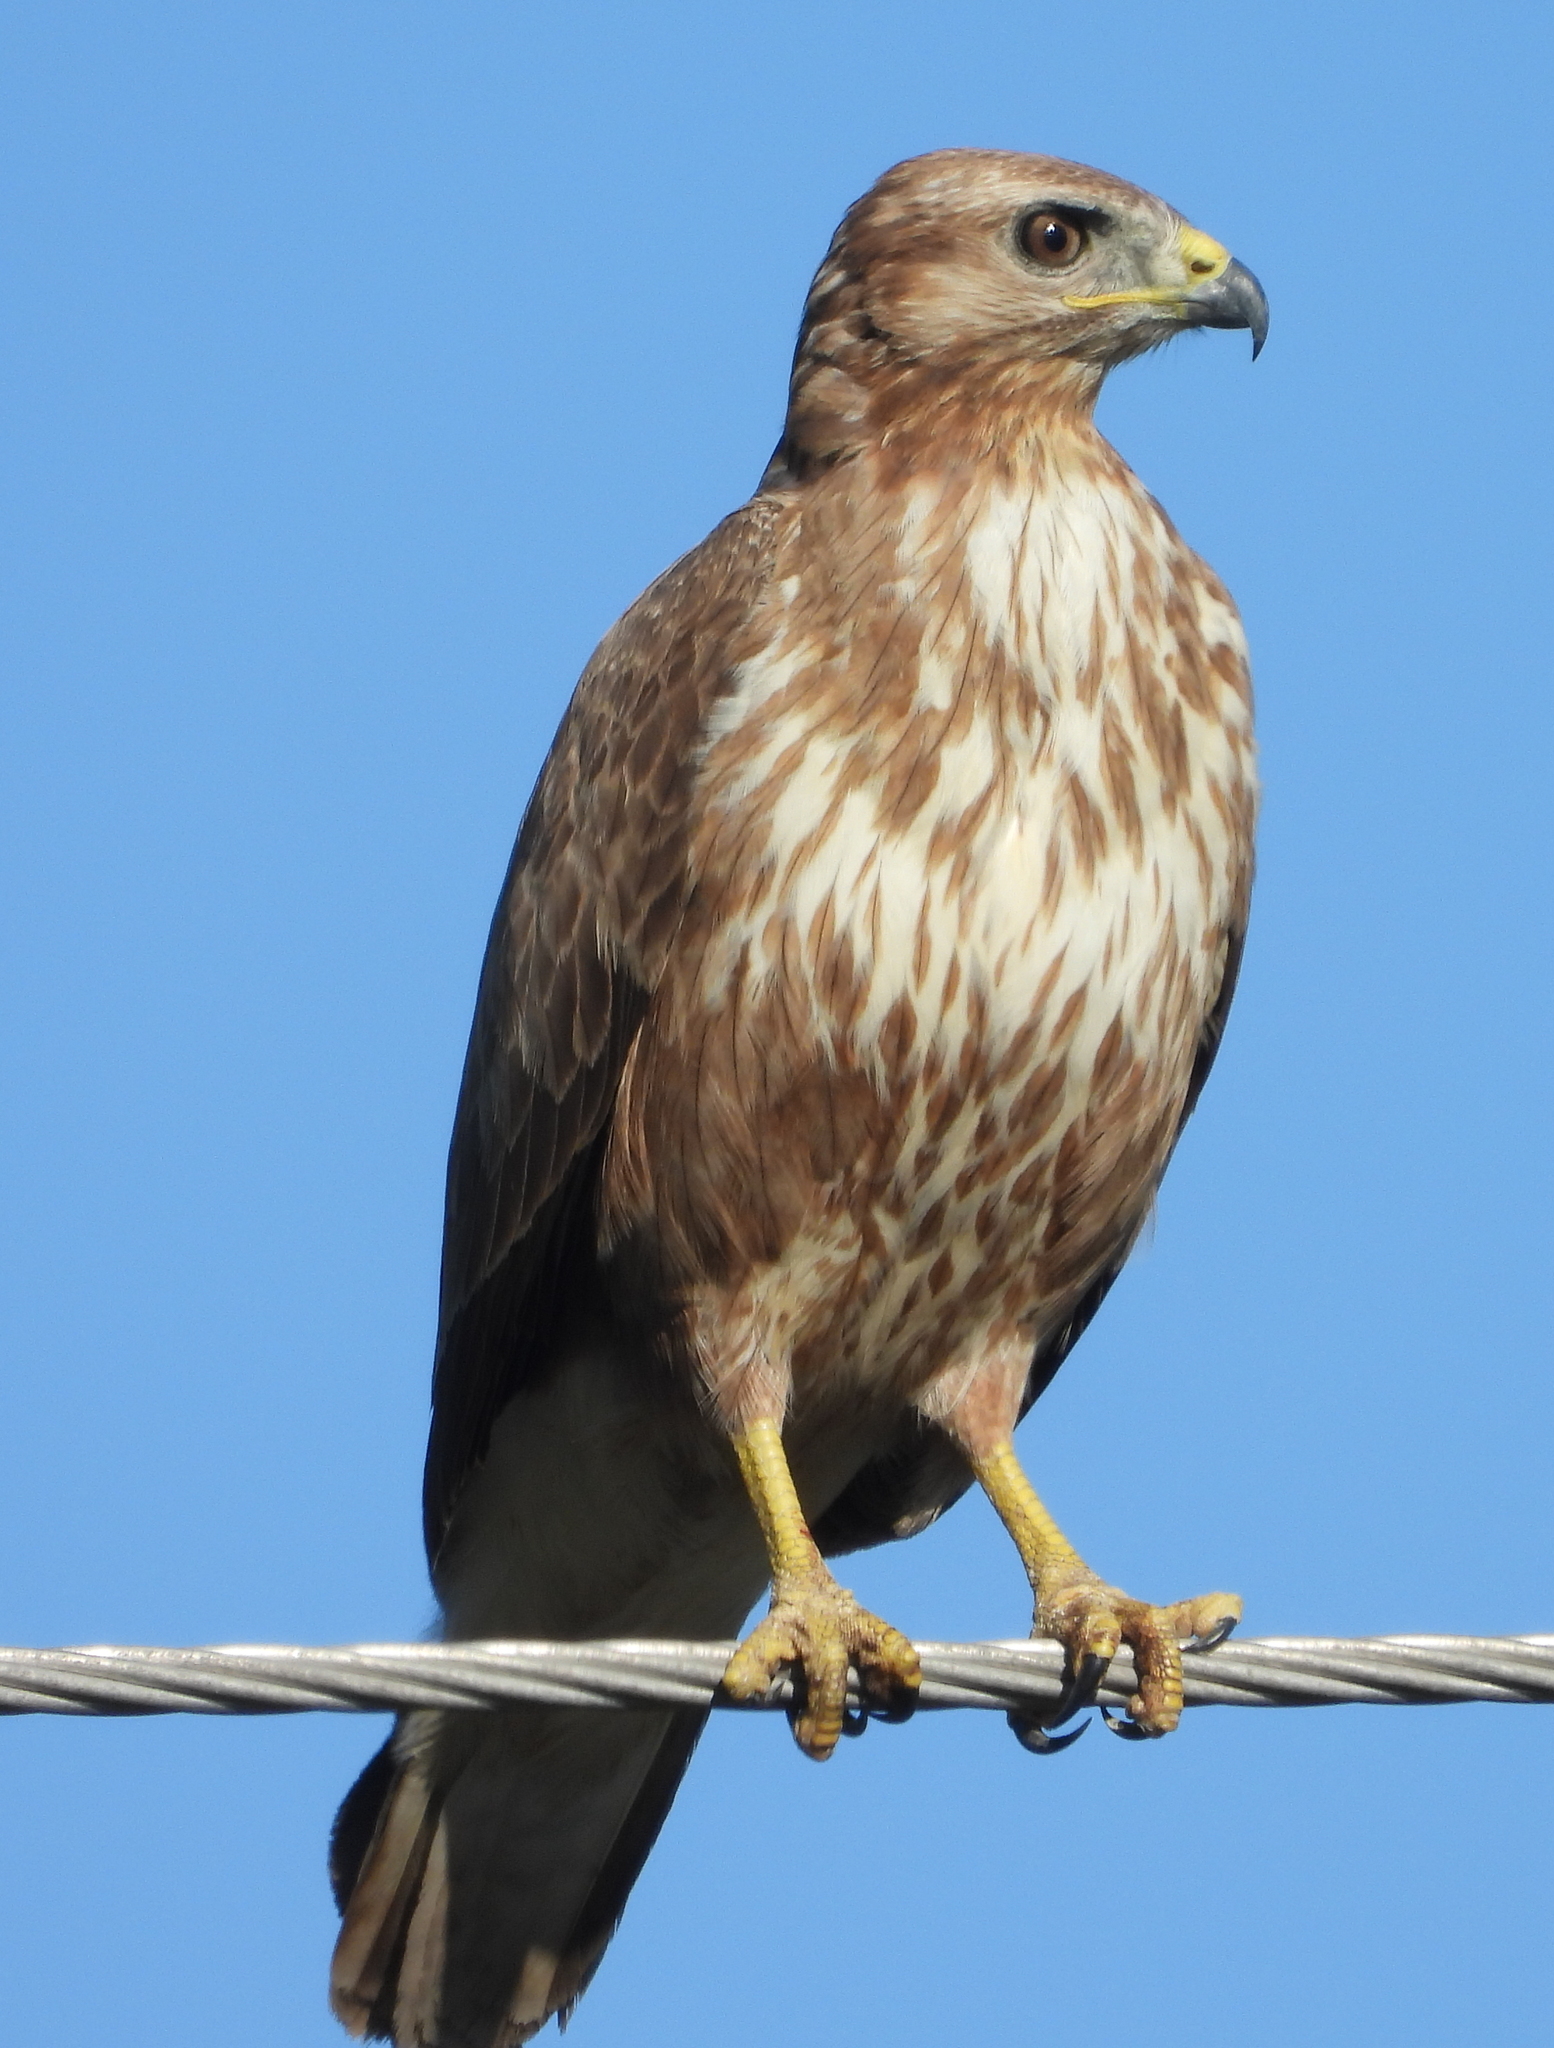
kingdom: Animalia
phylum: Chordata
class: Aves
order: Accipitriformes
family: Accipitridae
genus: Buteo
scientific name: Buteo buteo
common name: Common buzzard
